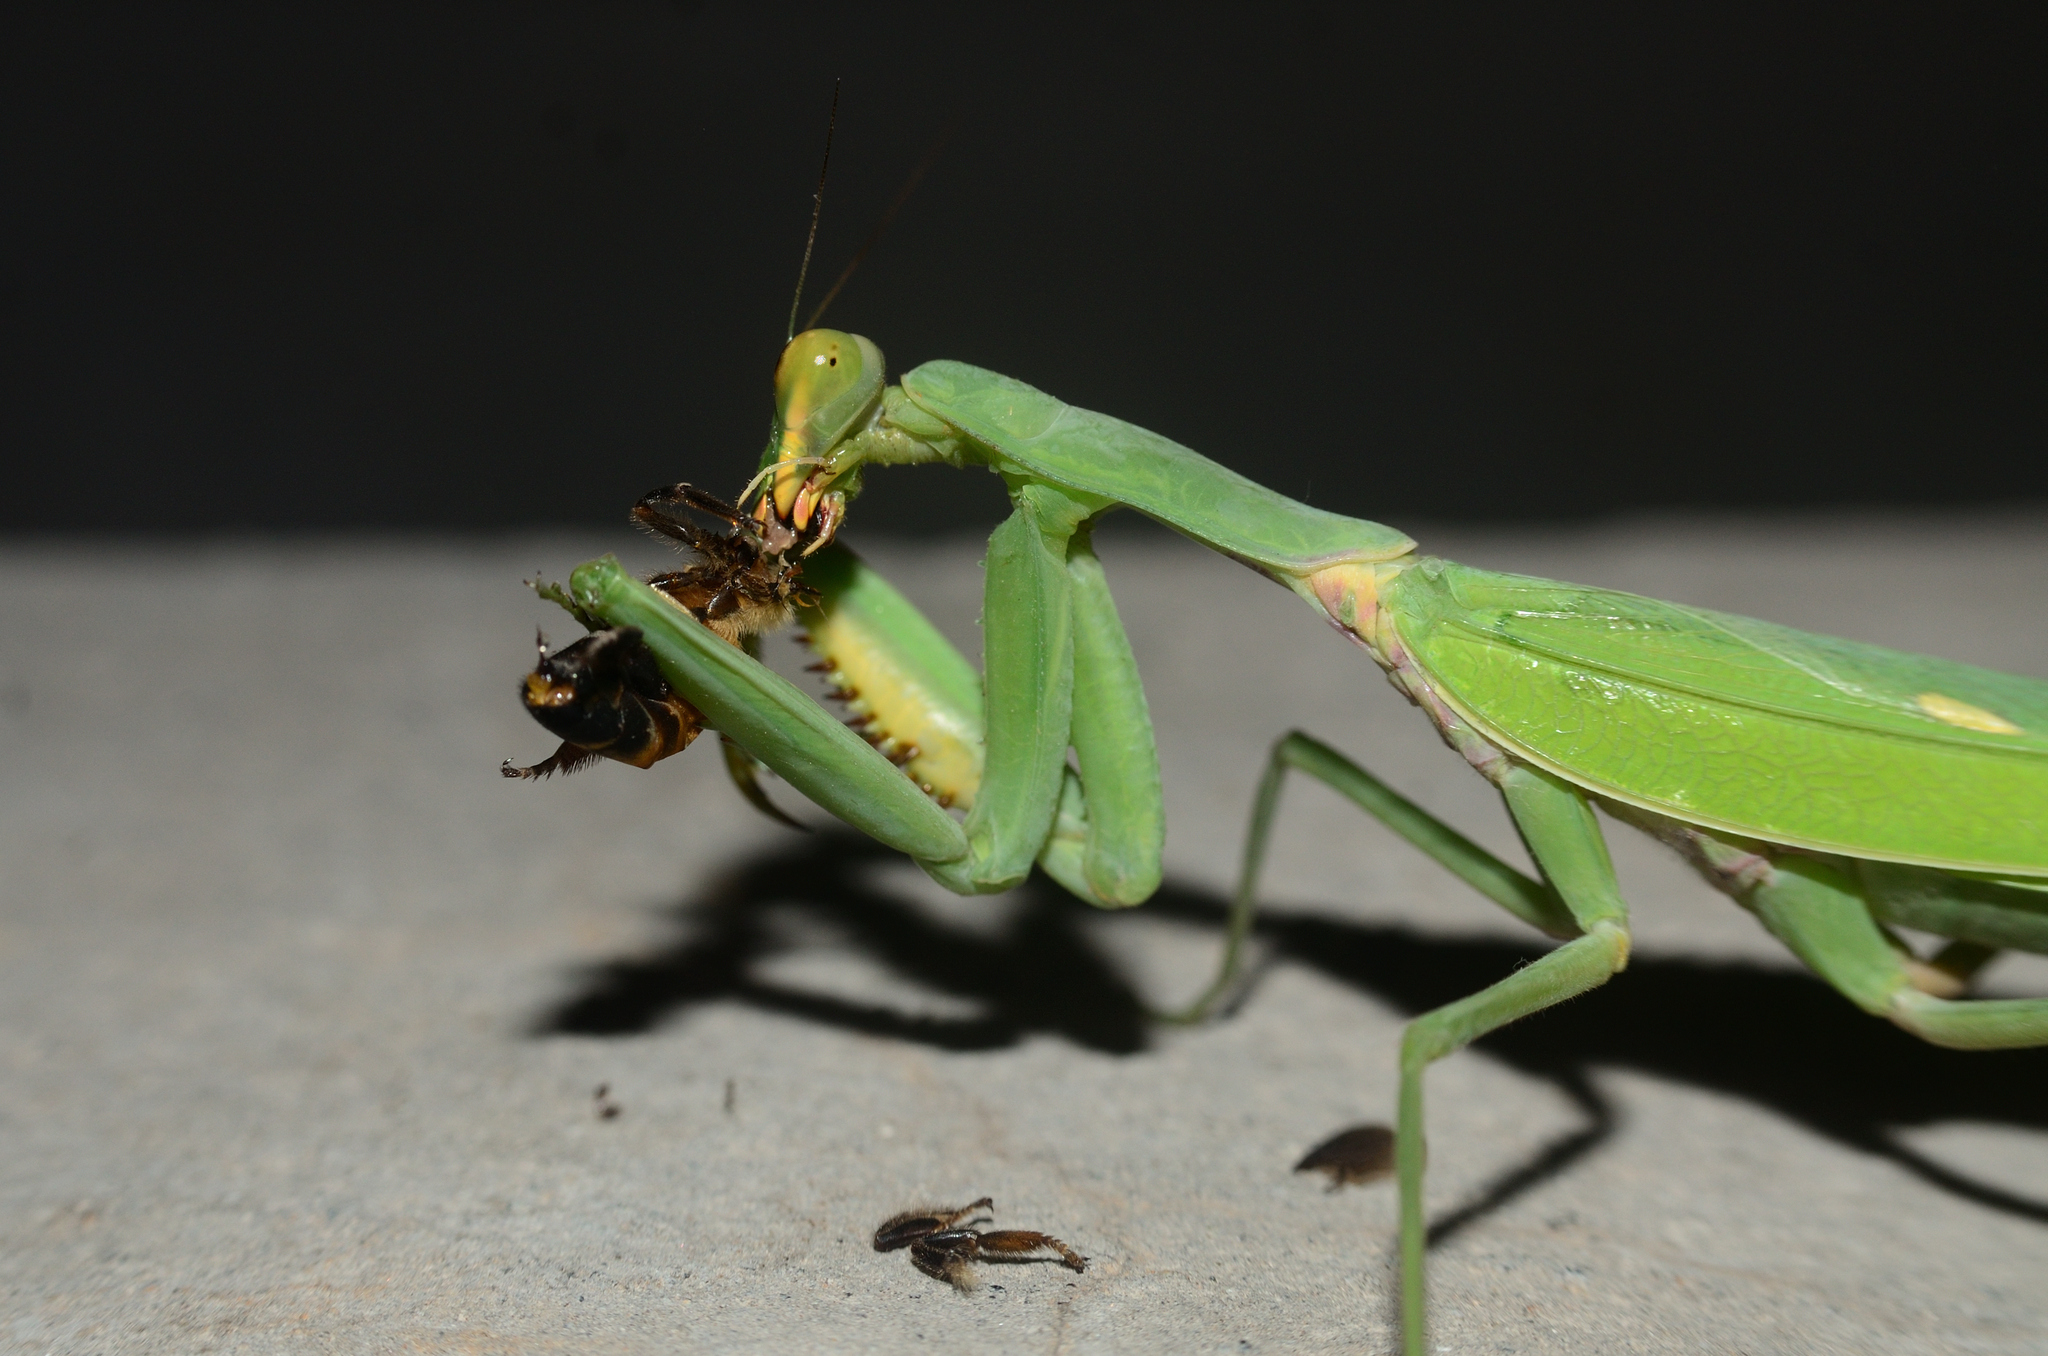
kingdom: Animalia
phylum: Arthropoda
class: Insecta
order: Mantodea
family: Mantidae
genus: Hierodula
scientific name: Hierodula tenuidentata
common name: Giant asian mantis
